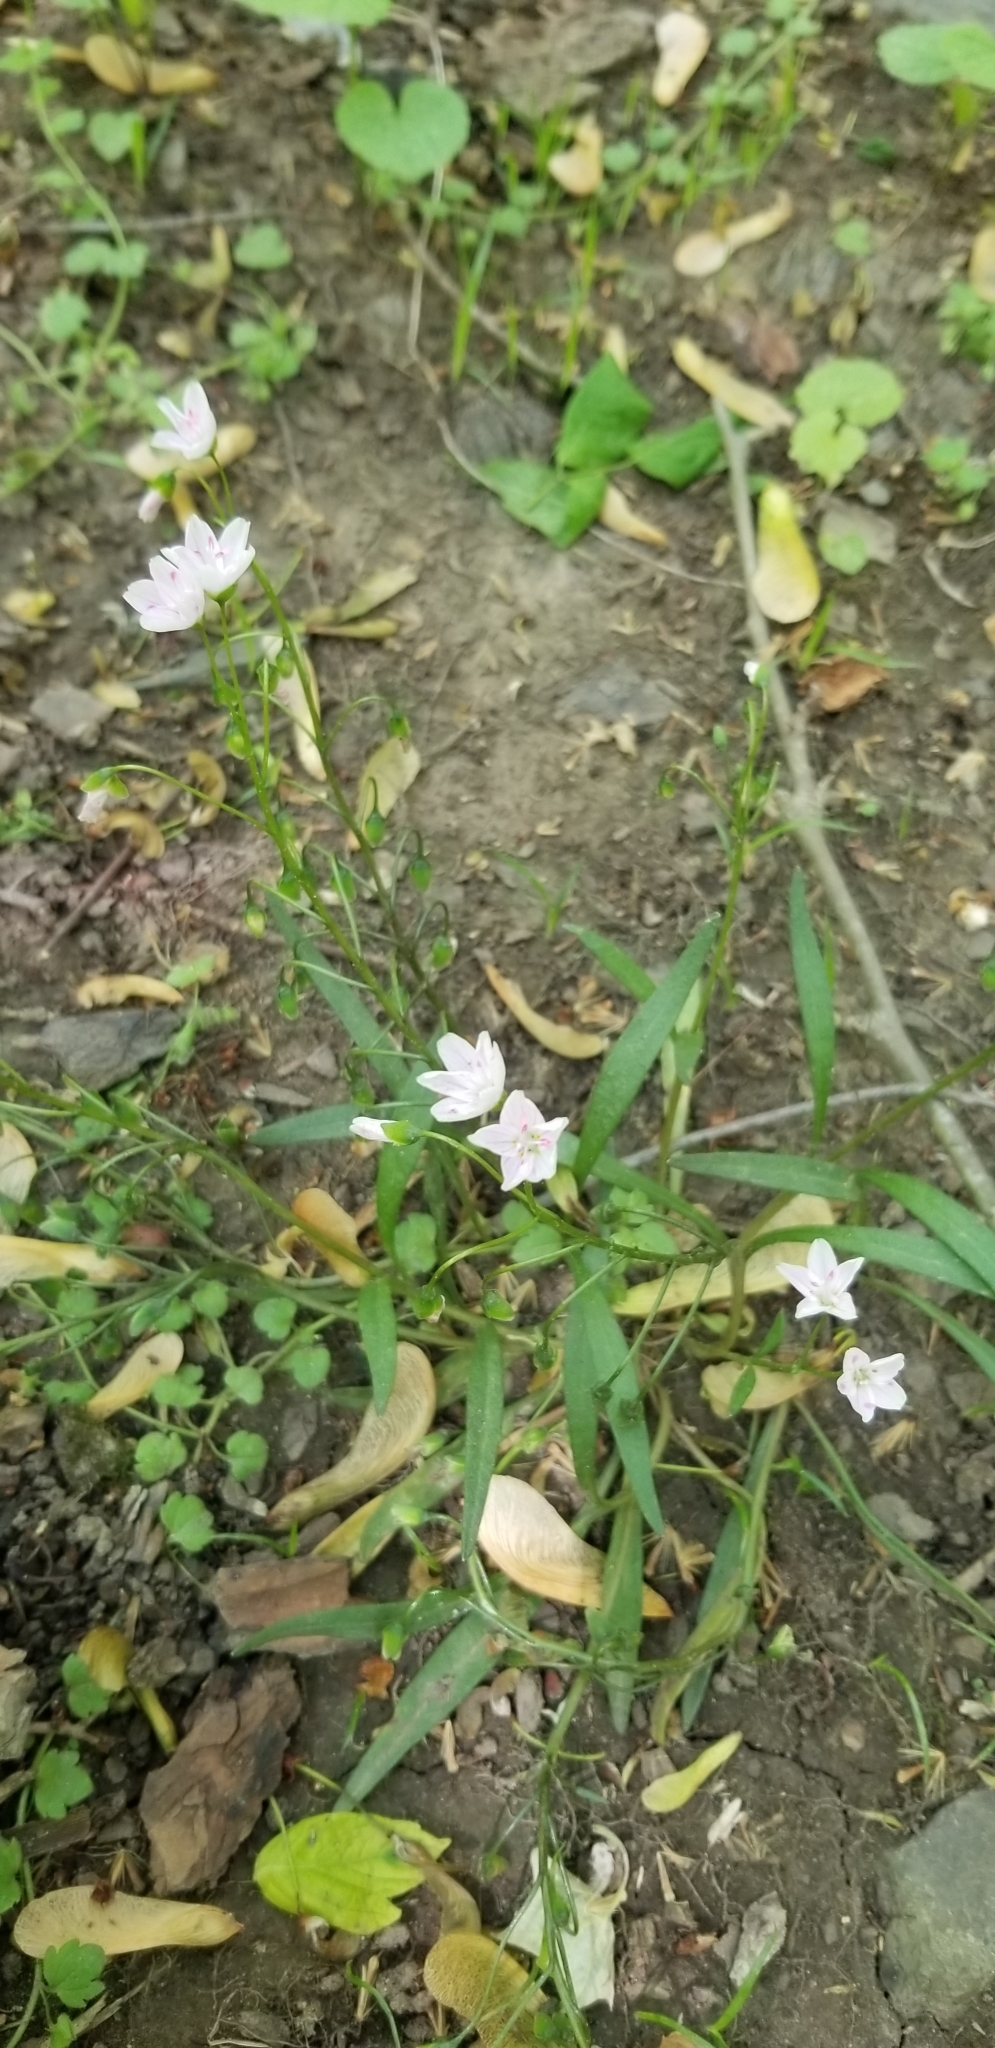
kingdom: Plantae
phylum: Tracheophyta
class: Magnoliopsida
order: Caryophyllales
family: Montiaceae
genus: Claytonia
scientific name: Claytonia virginica
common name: Virginia springbeauty
